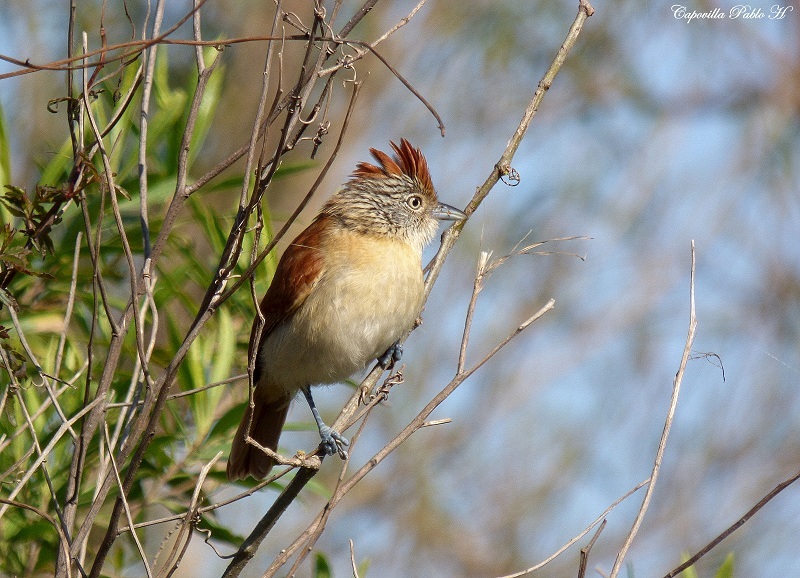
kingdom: Animalia
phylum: Chordata
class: Aves
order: Passeriformes
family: Thamnophilidae
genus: Thamnophilus
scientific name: Thamnophilus doliatus
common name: Barred antshrike
